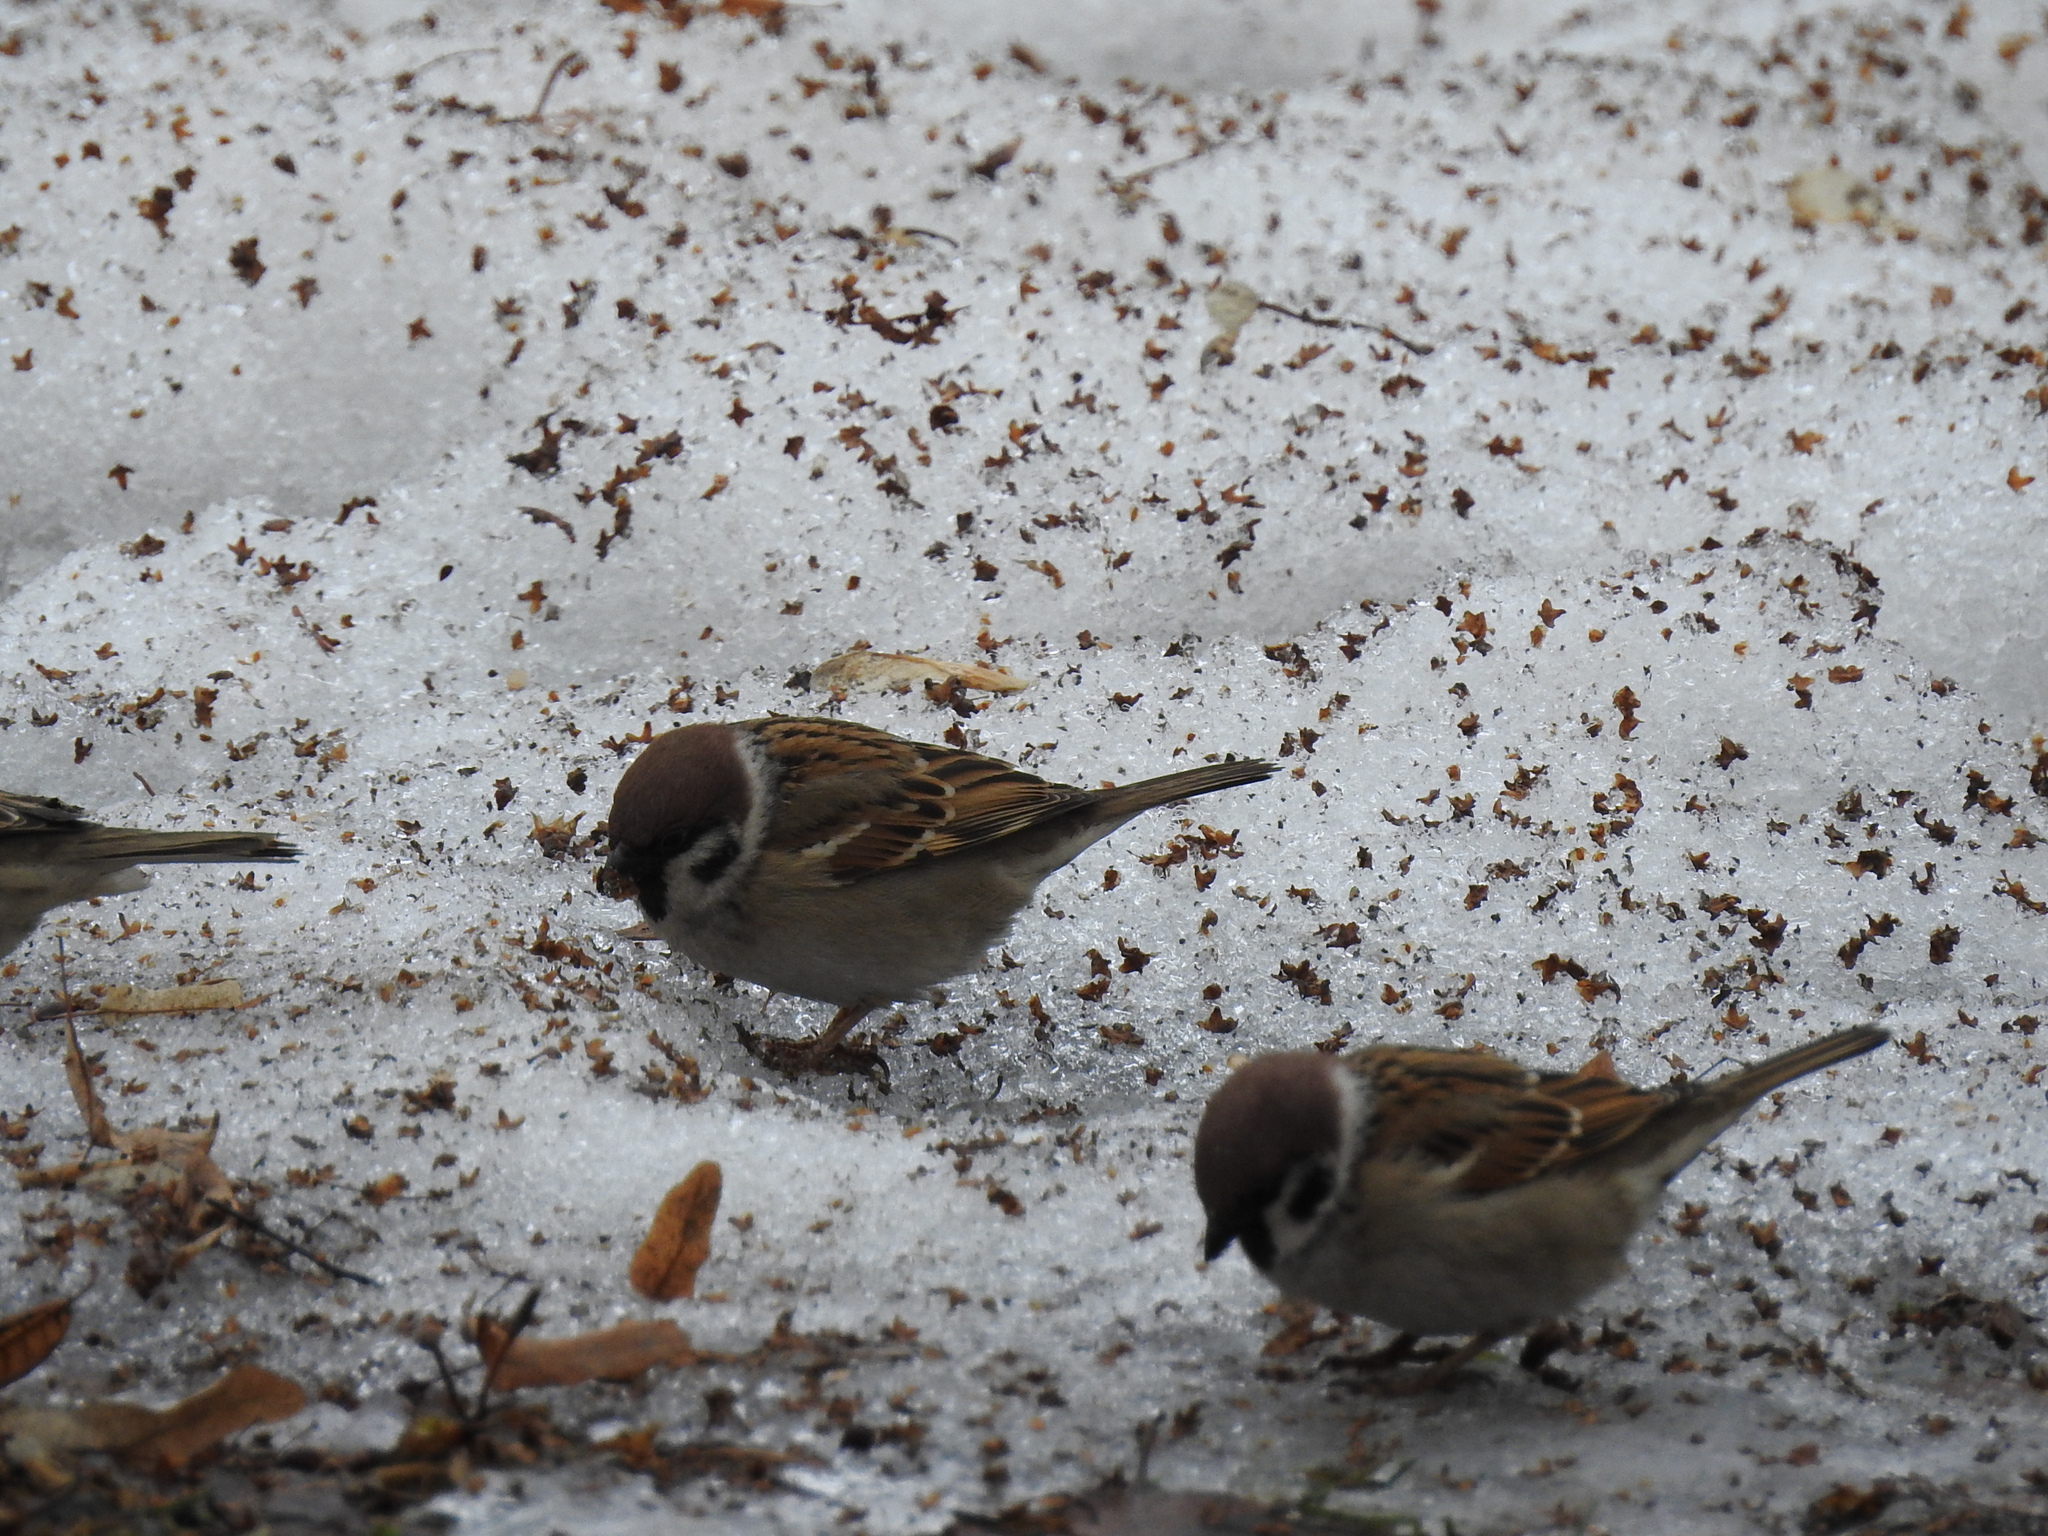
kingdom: Animalia
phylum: Chordata
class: Aves
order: Passeriformes
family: Passeridae
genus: Passer
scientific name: Passer montanus
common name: Eurasian tree sparrow
